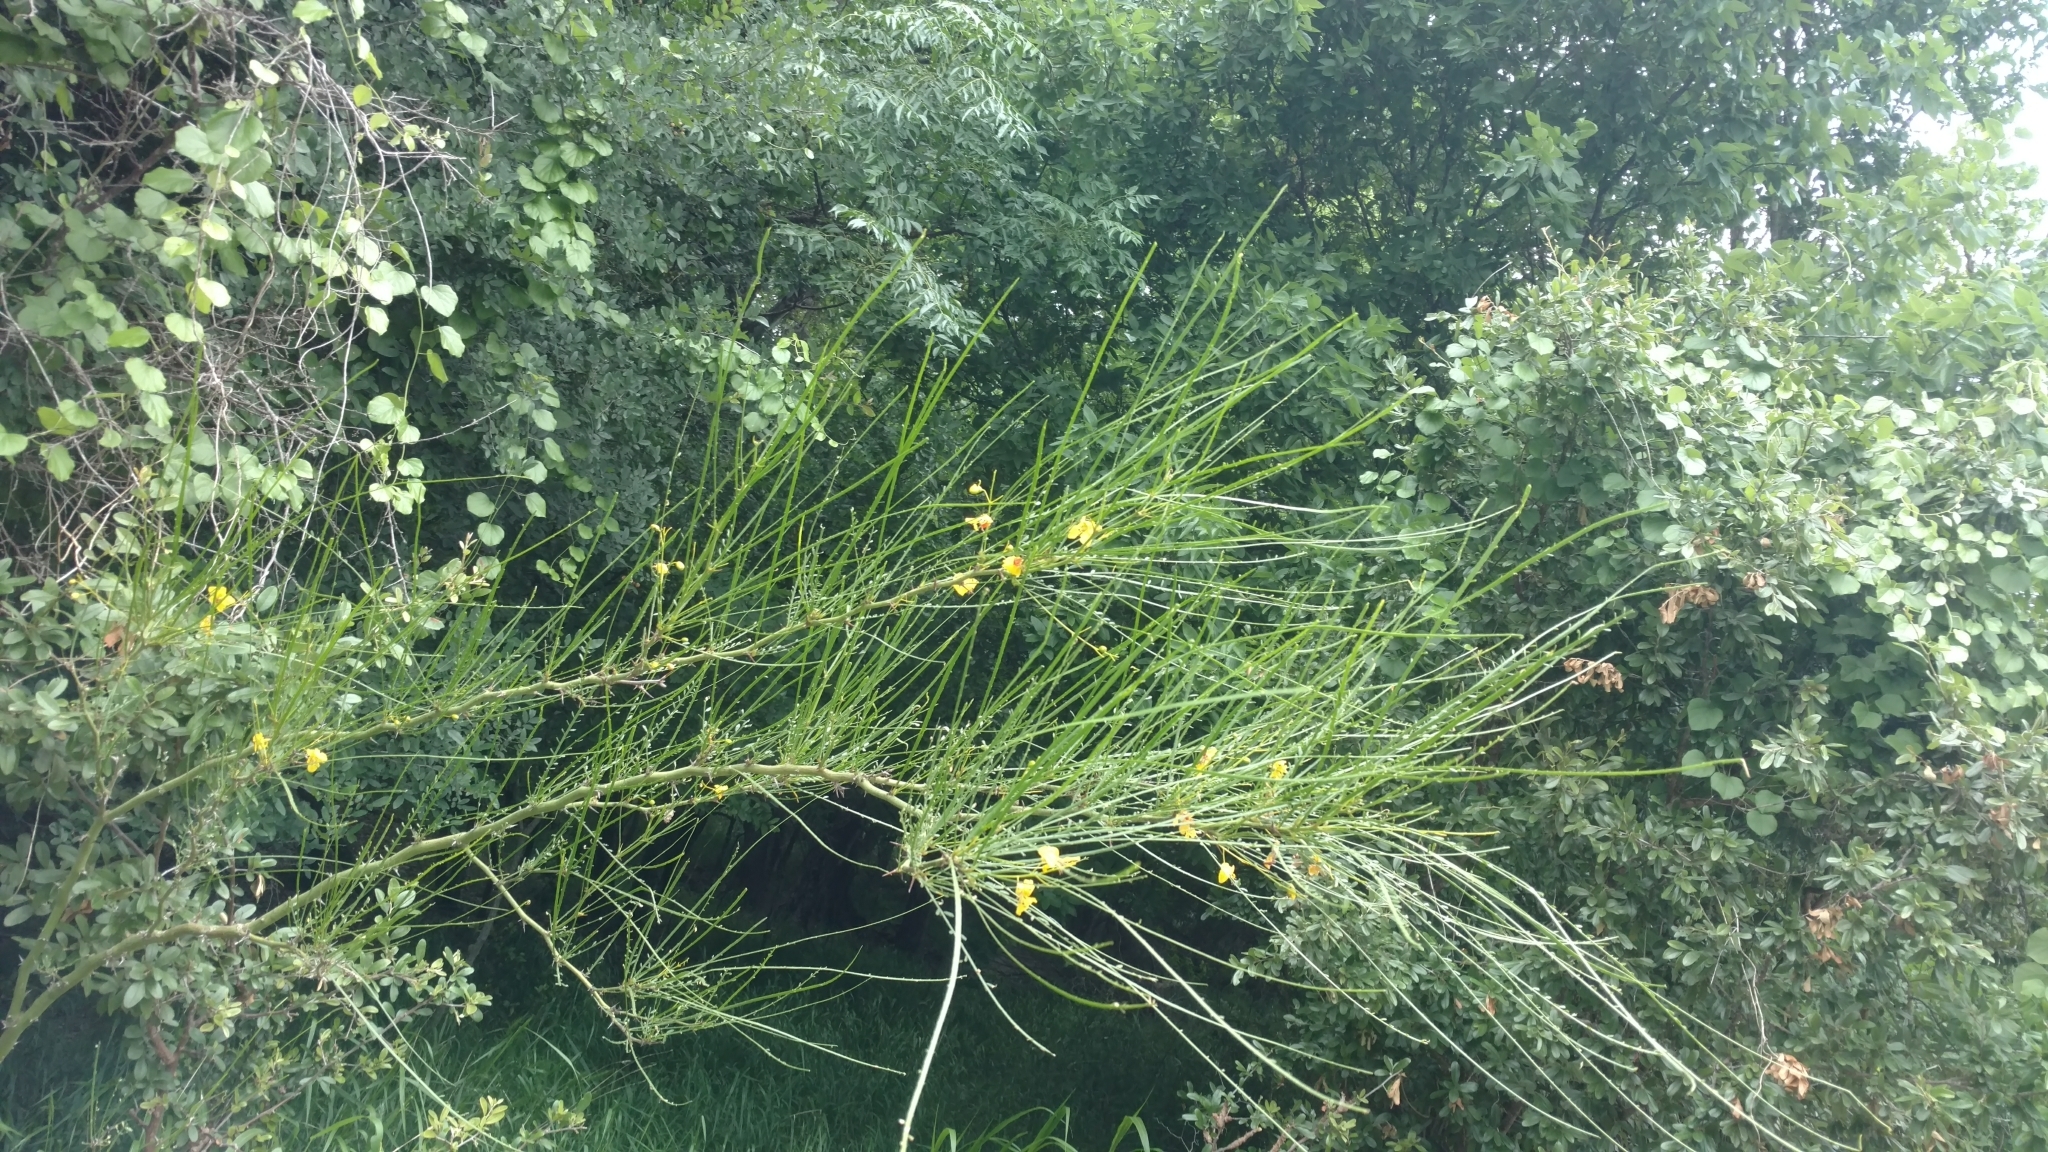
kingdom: Plantae
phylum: Tracheophyta
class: Magnoliopsida
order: Fabales
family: Fabaceae
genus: Parkinsonia
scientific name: Parkinsonia aculeata
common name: Jerusalem thorn
